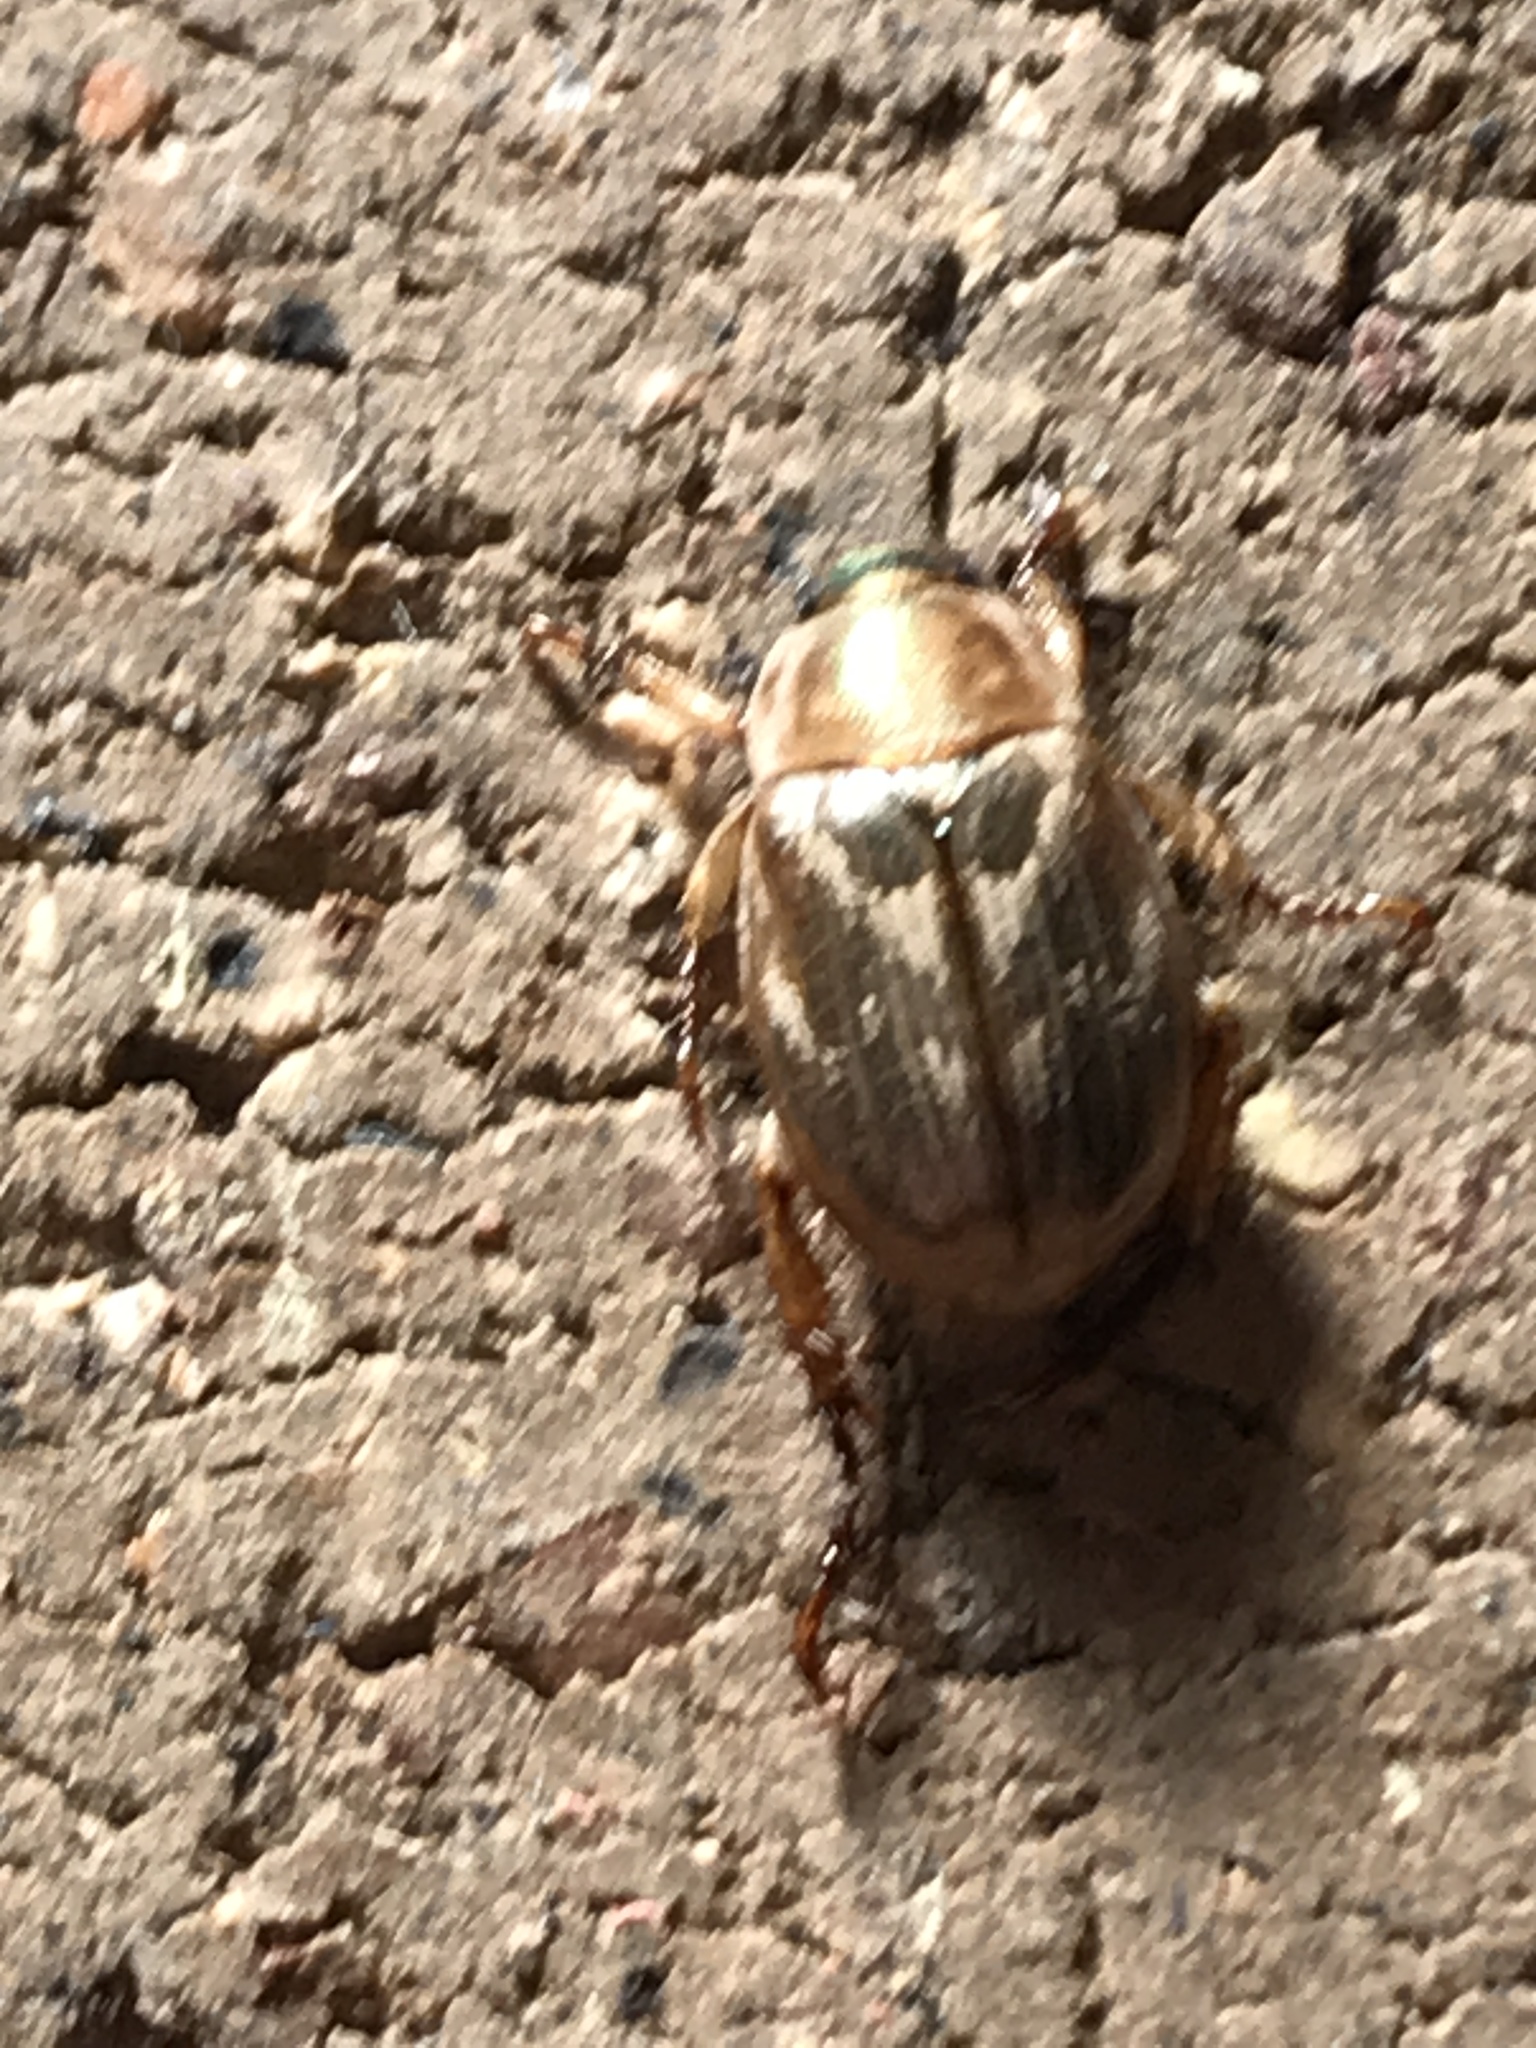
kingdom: Animalia
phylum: Arthropoda
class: Insecta
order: Coleoptera
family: Scarabaeidae
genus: Exomala
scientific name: Exomala orientalis
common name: Oriental beetle
